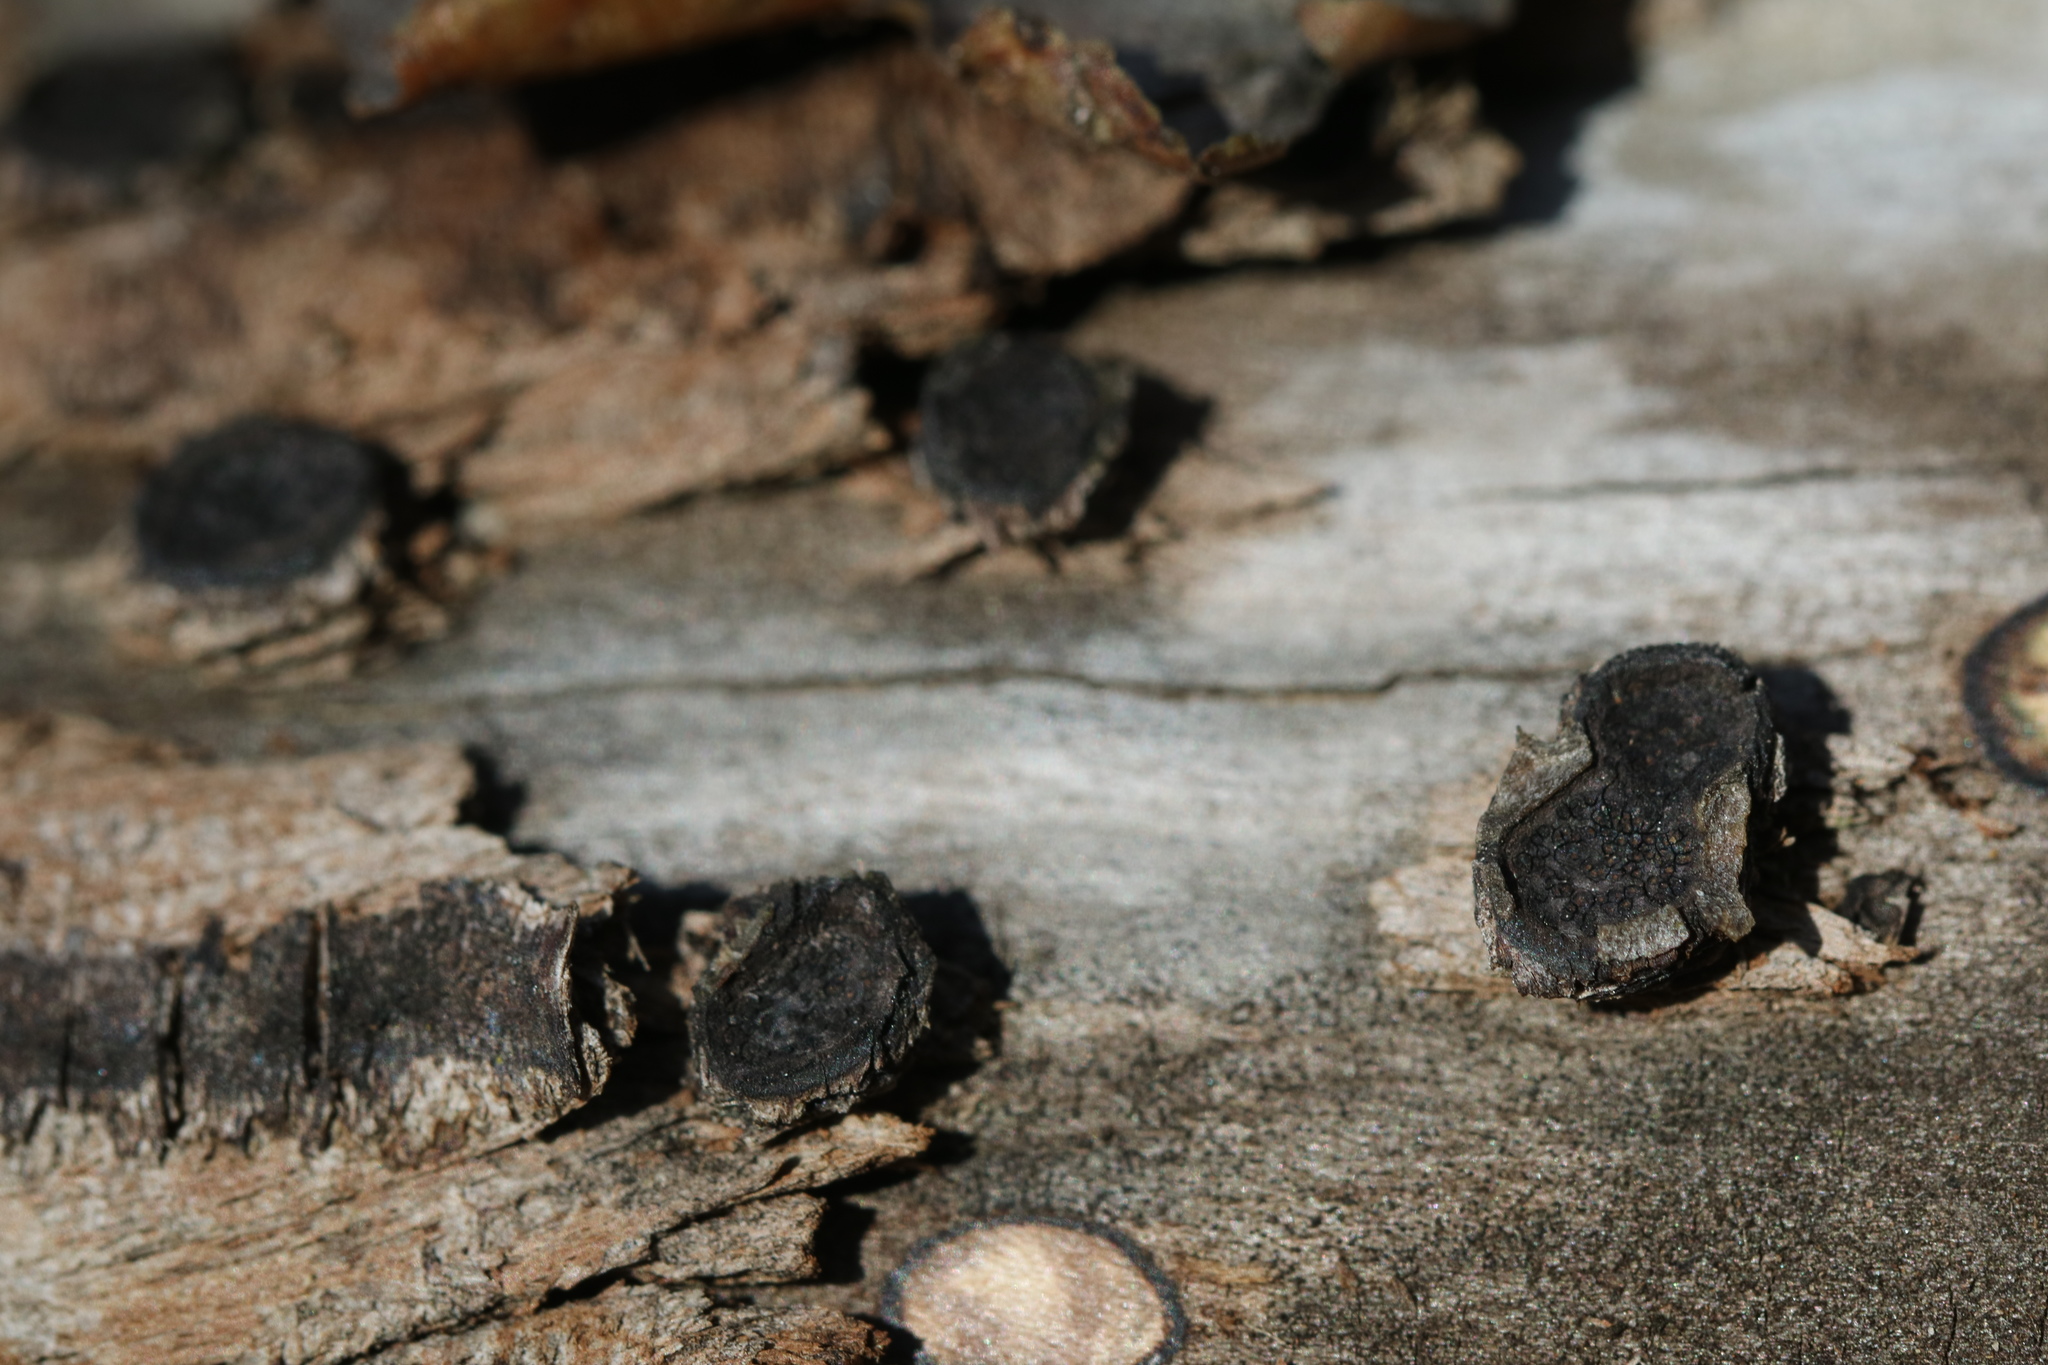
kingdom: Fungi
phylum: Ascomycota
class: Sordariomycetes
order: Xylariales
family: Graphostromataceae
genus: Biscogniauxia
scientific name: Biscogniauxia marginata
